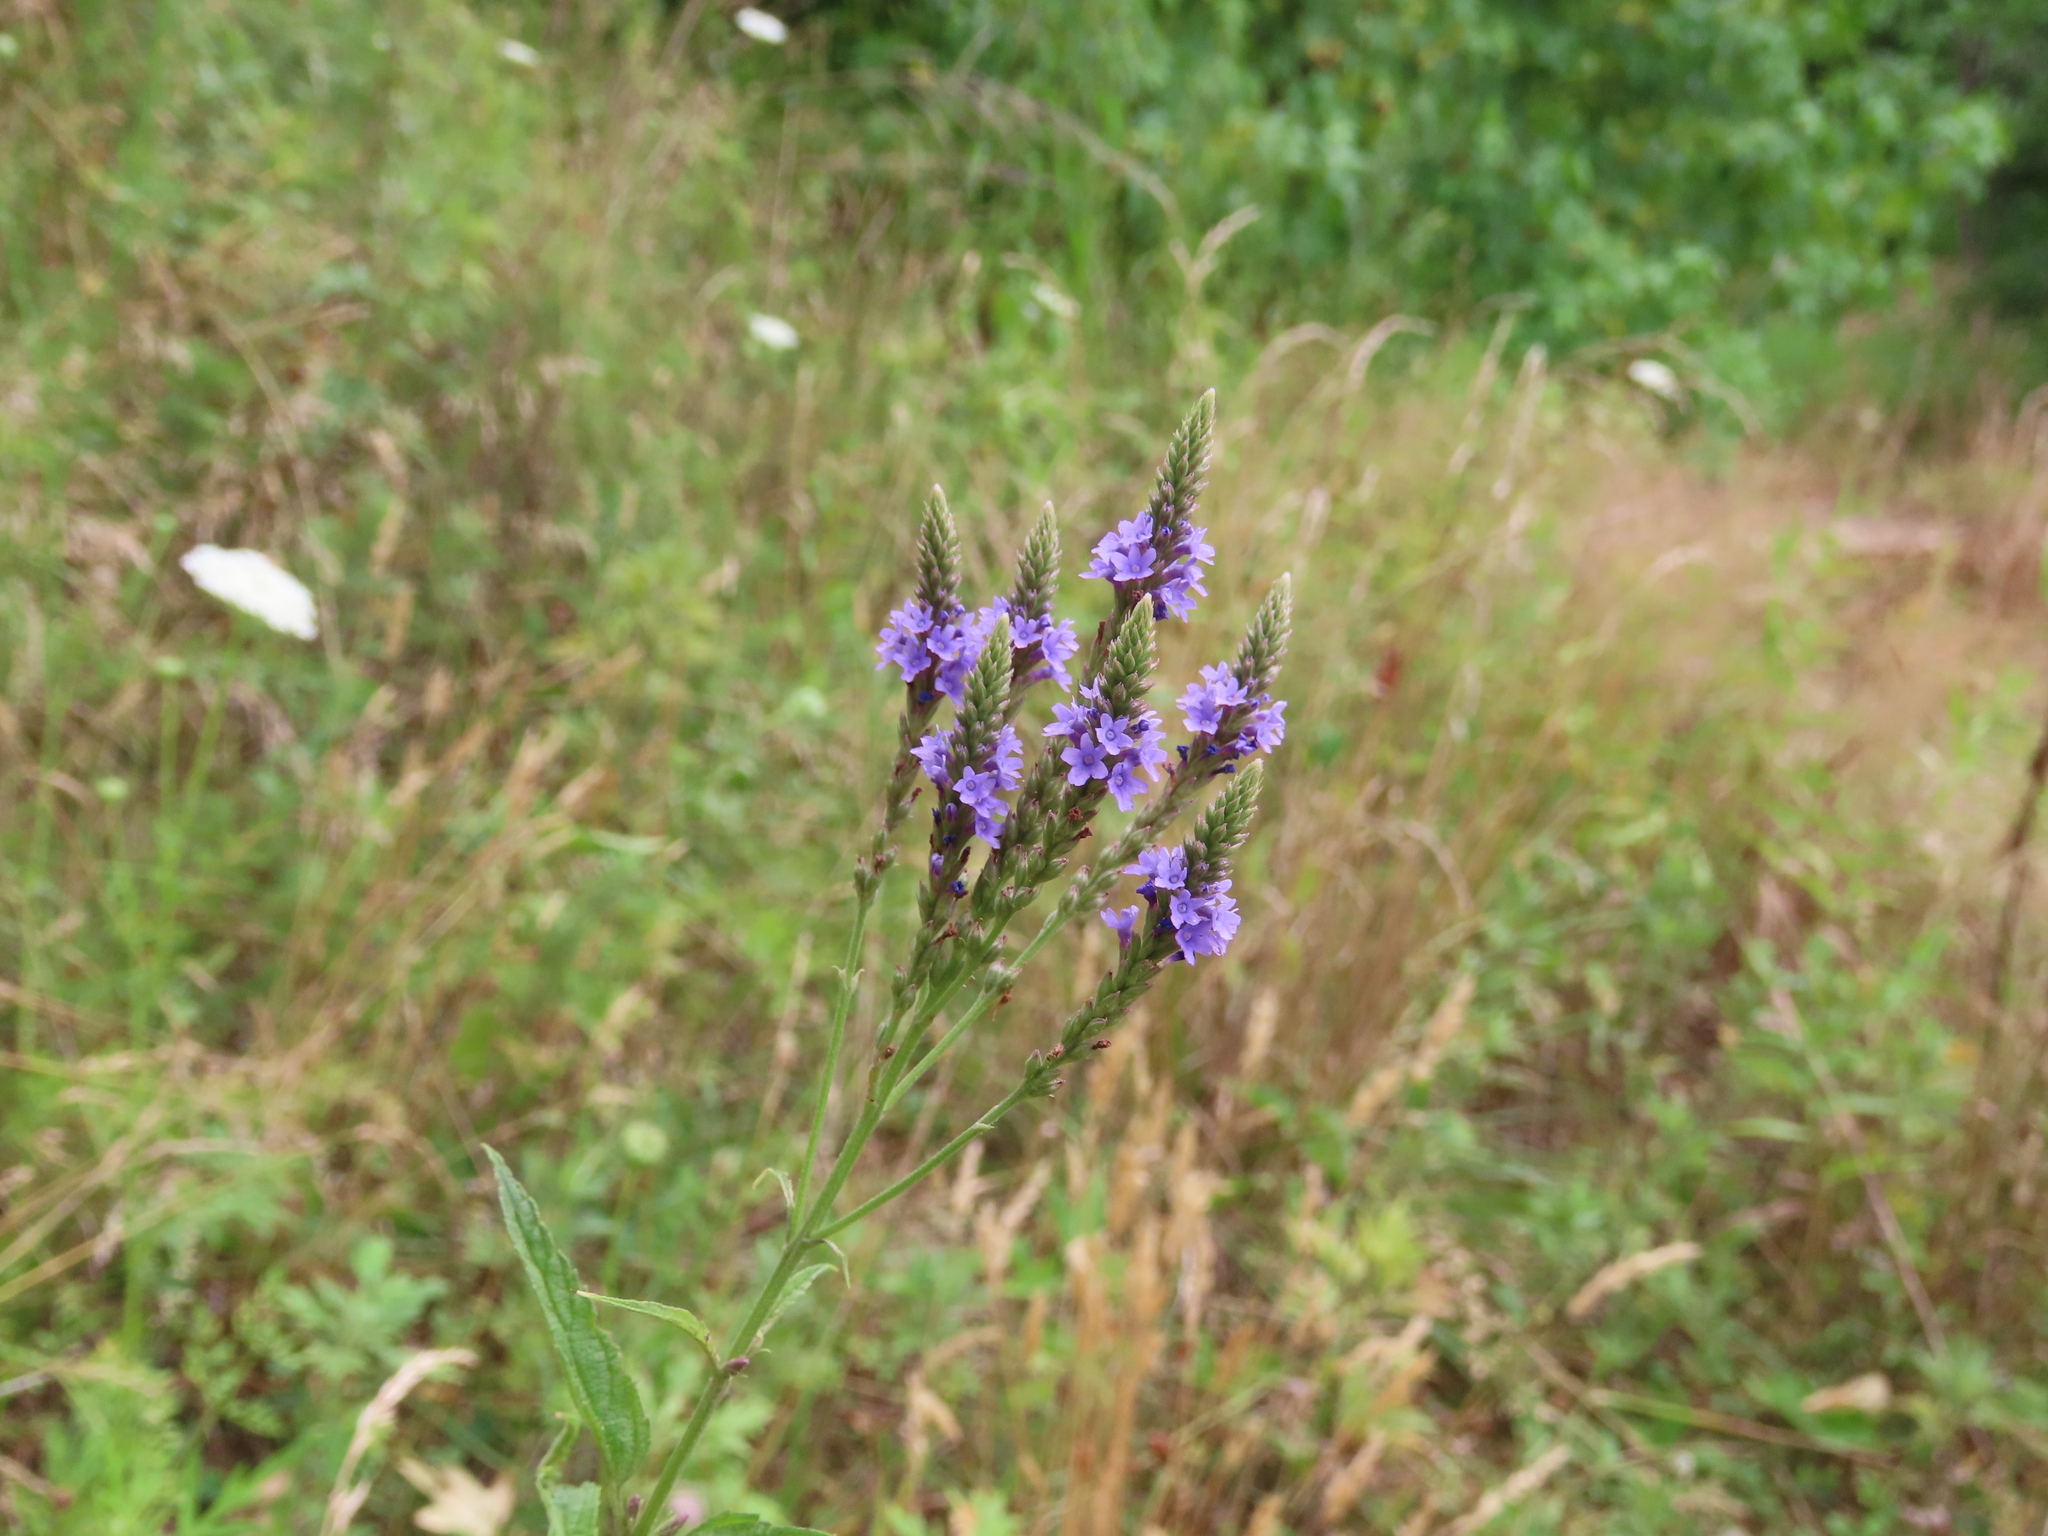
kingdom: Plantae
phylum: Tracheophyta
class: Magnoliopsida
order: Lamiales
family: Verbenaceae
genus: Verbena
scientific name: Verbena hastata
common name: American blue vervain
